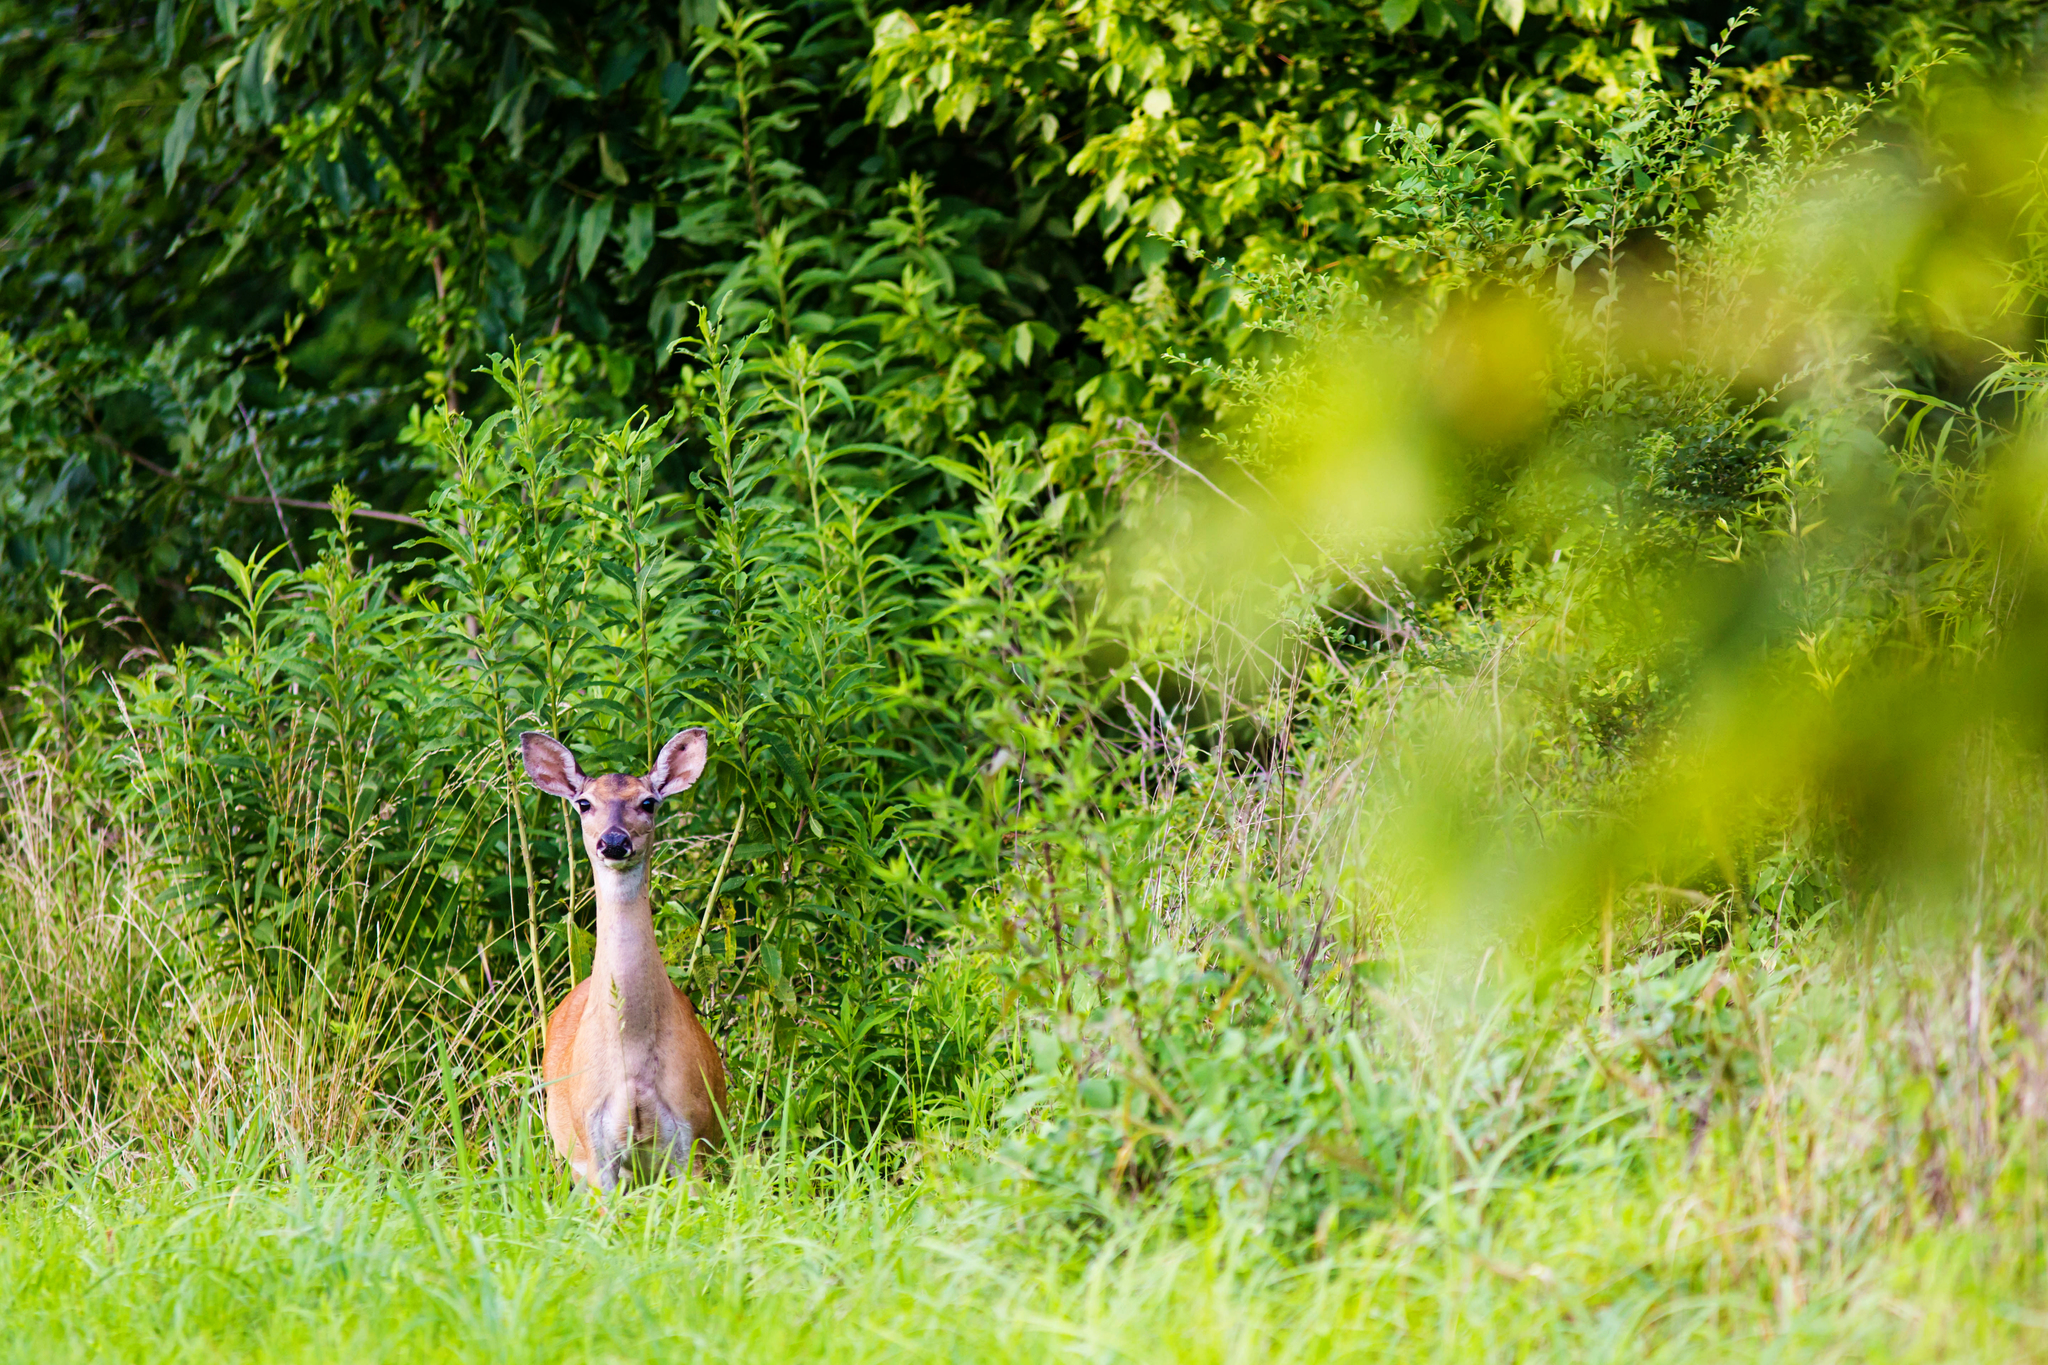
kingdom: Animalia
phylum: Chordata
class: Mammalia
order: Artiodactyla
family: Cervidae
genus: Odocoileus
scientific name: Odocoileus virginianus
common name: White-tailed deer
